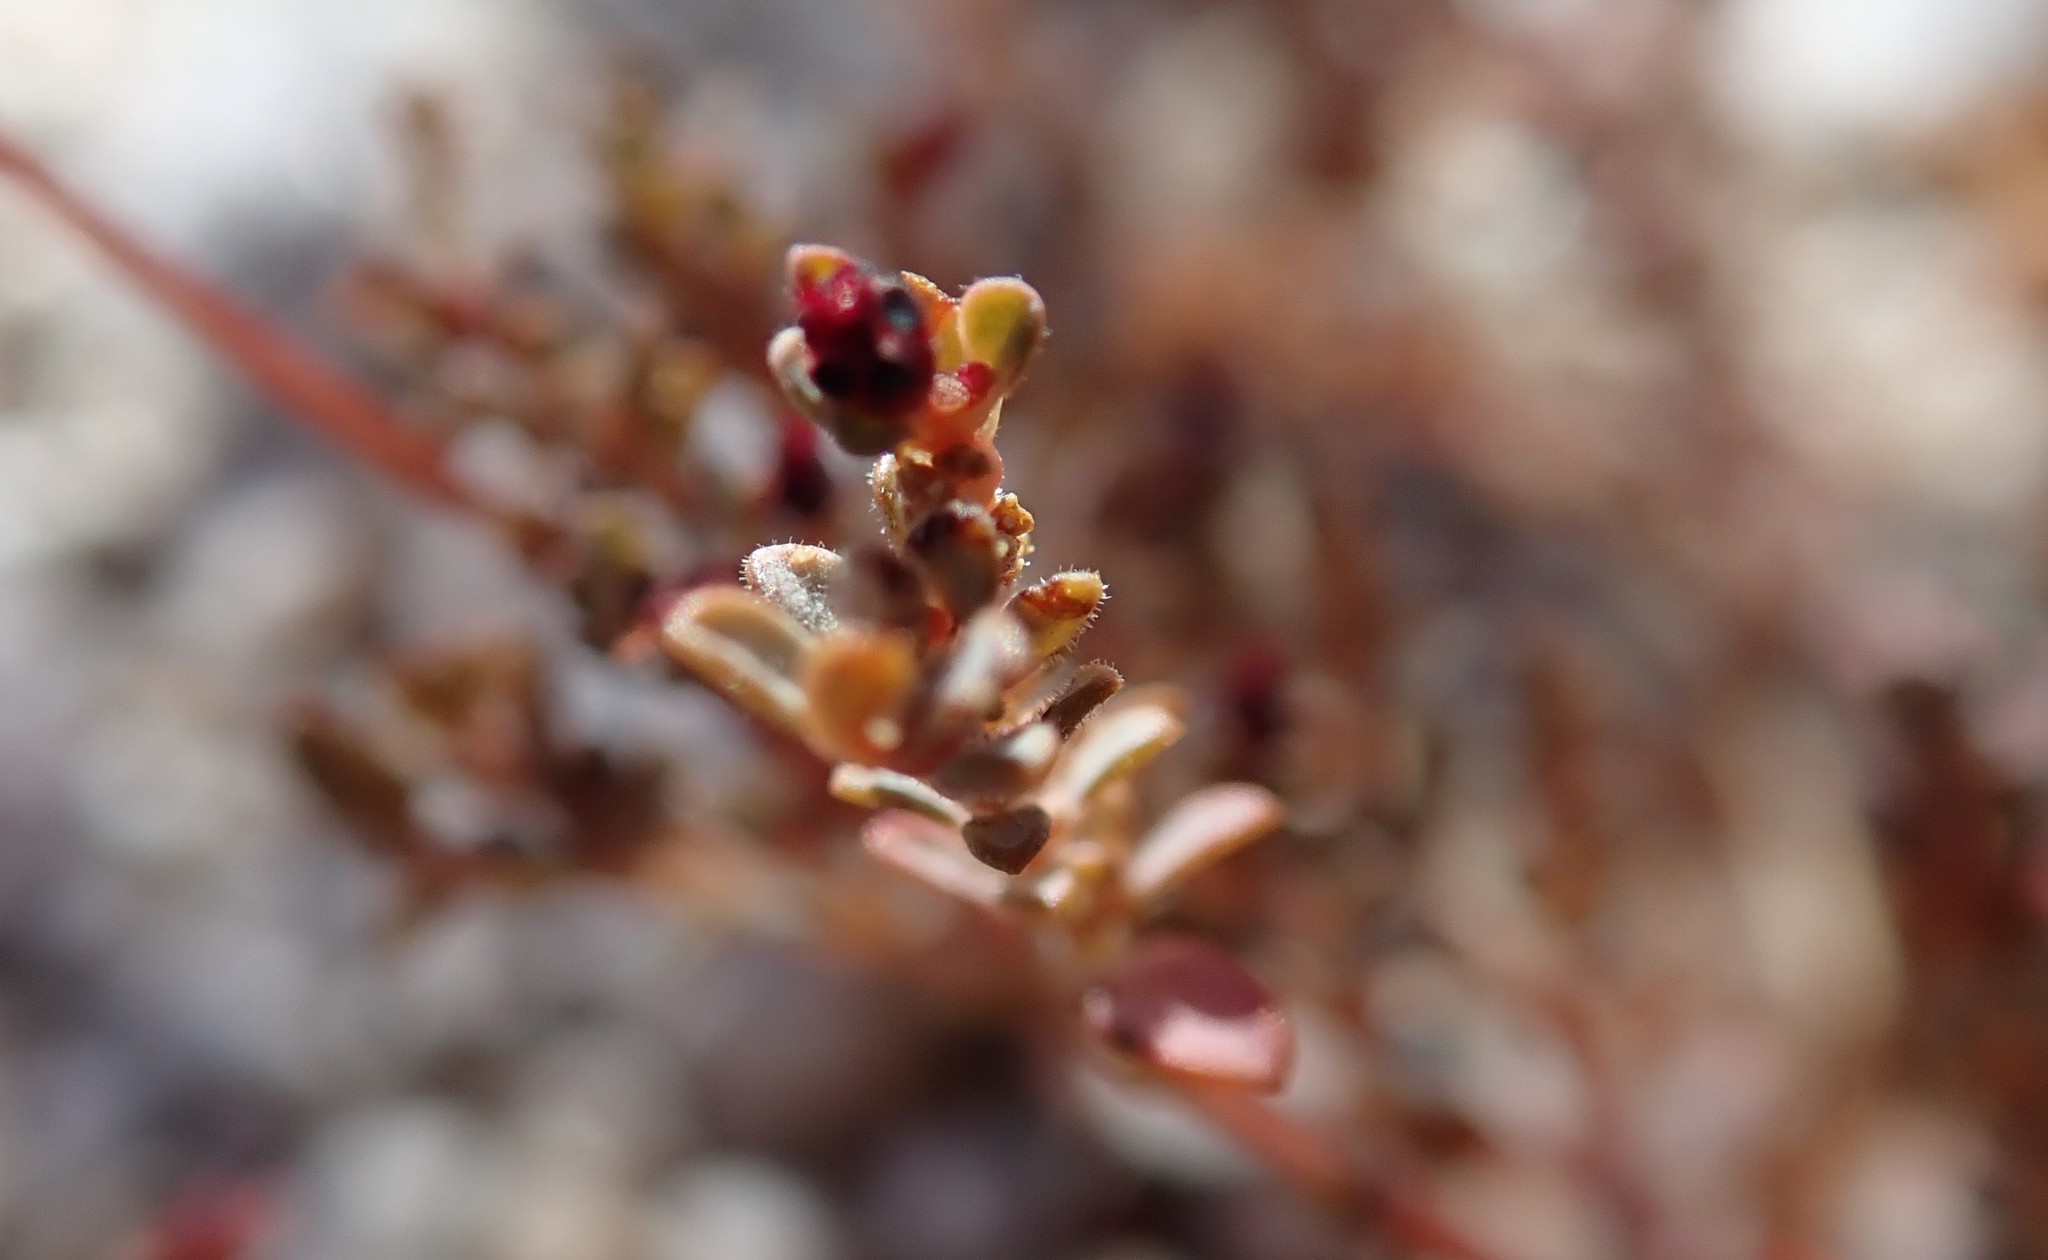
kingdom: Plantae
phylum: Tracheophyta
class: Magnoliopsida
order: Malpighiales
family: Euphorbiaceae
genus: Euphorbia
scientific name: Euphorbia polycarpa
